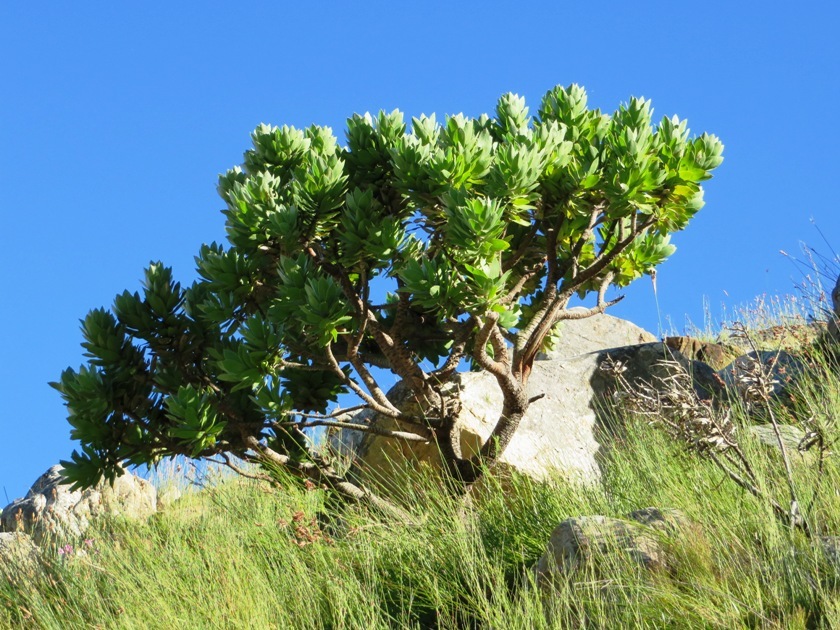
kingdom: Plantae
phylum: Tracheophyta
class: Magnoliopsida
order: Proteales
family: Proteaceae
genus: Leucospermum
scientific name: Leucospermum conocarpodendron
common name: Tree pincushion
